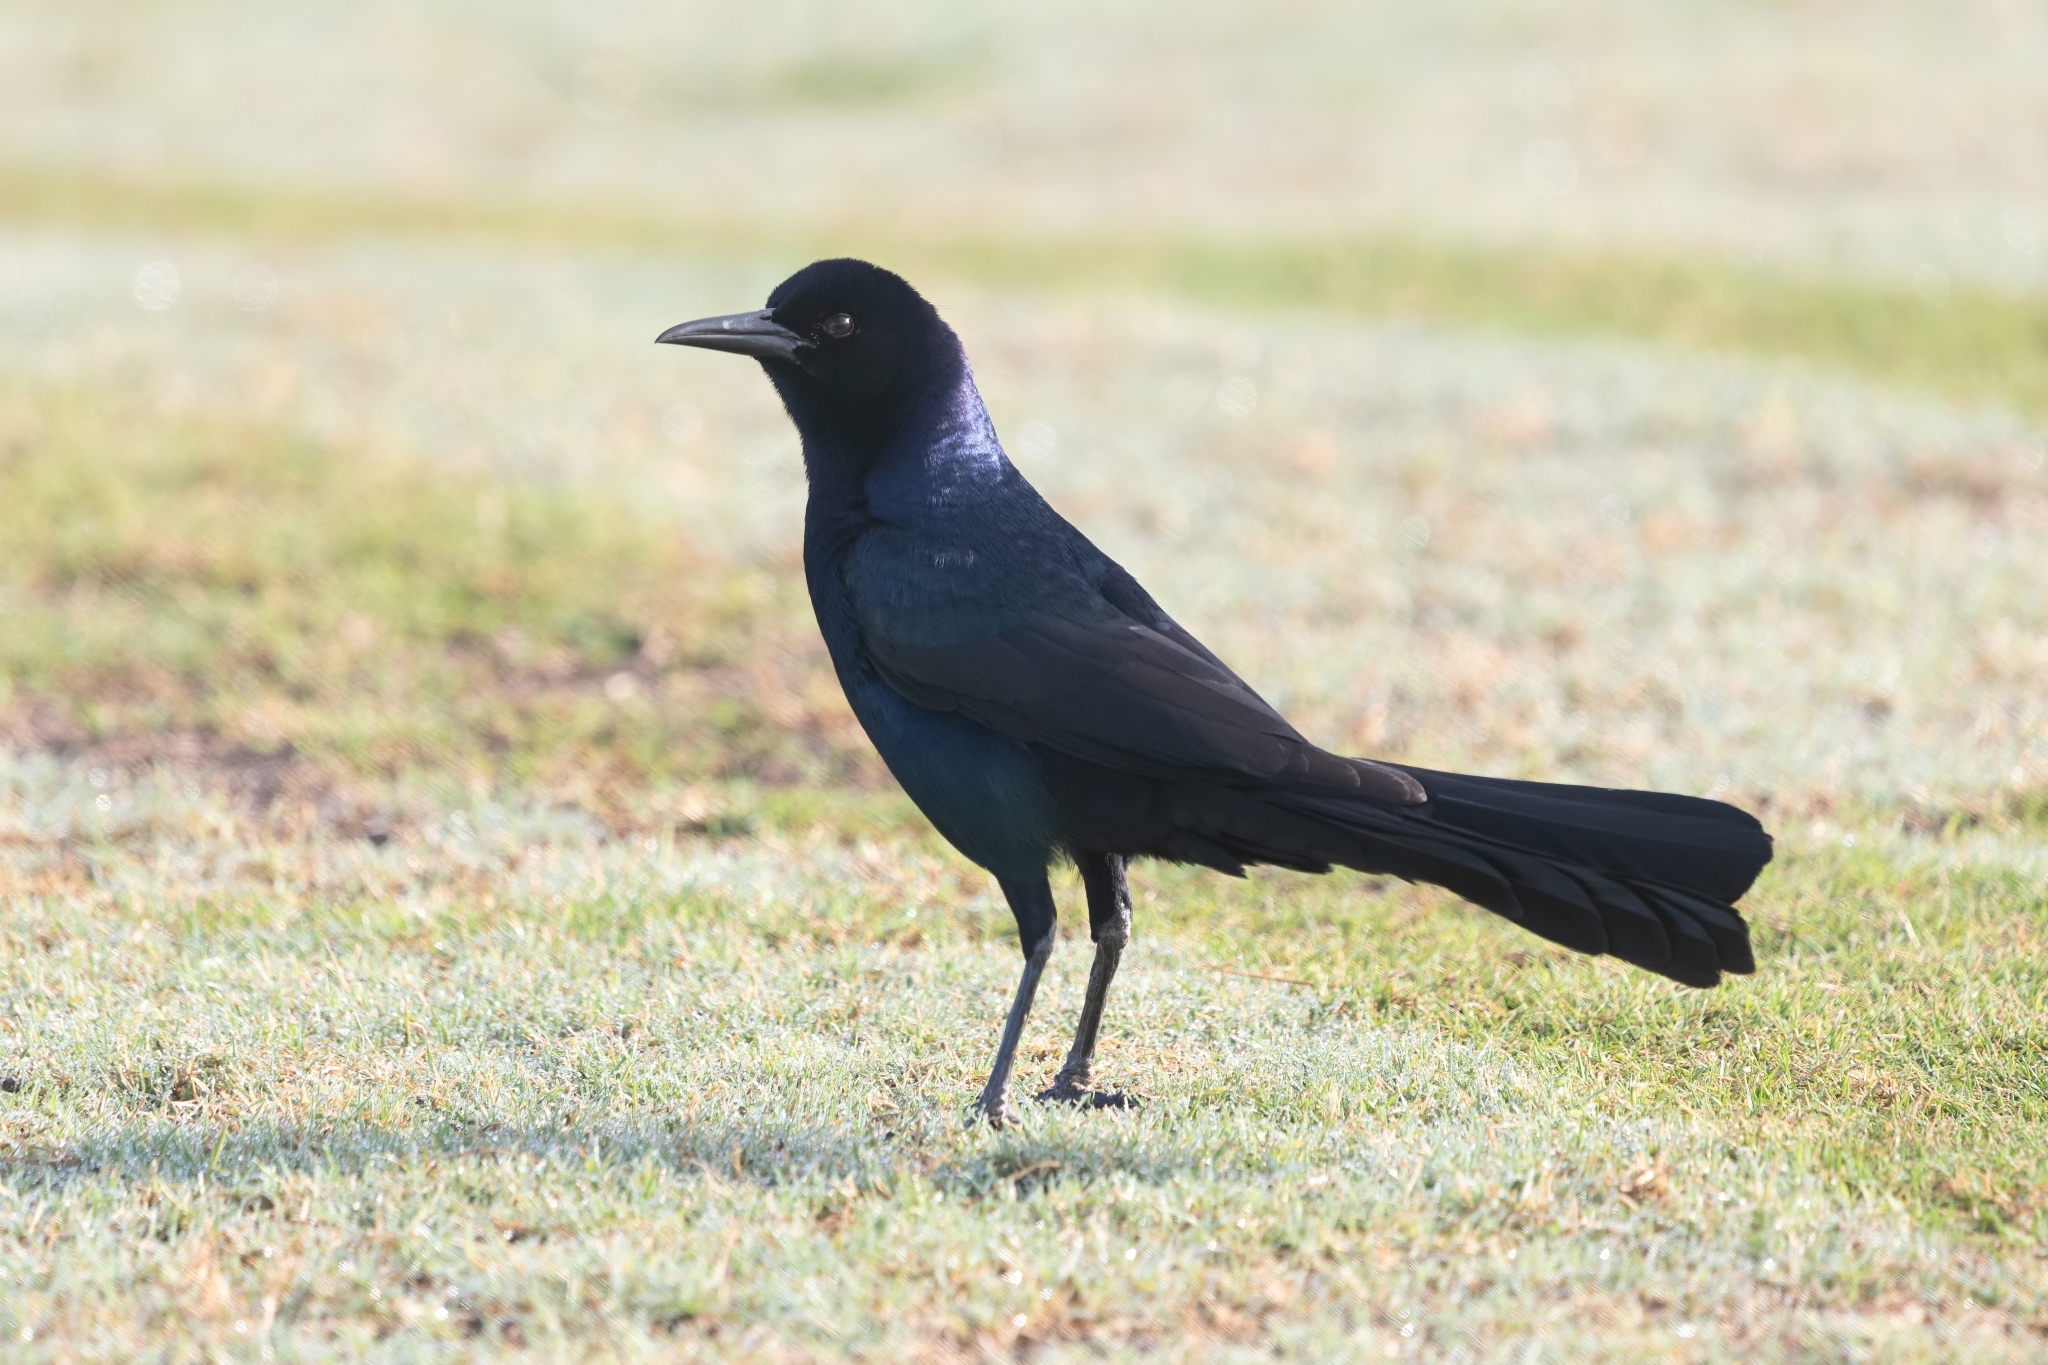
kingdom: Animalia
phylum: Chordata
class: Aves
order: Passeriformes
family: Icteridae
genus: Quiscalus
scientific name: Quiscalus major
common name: Boat-tailed grackle
